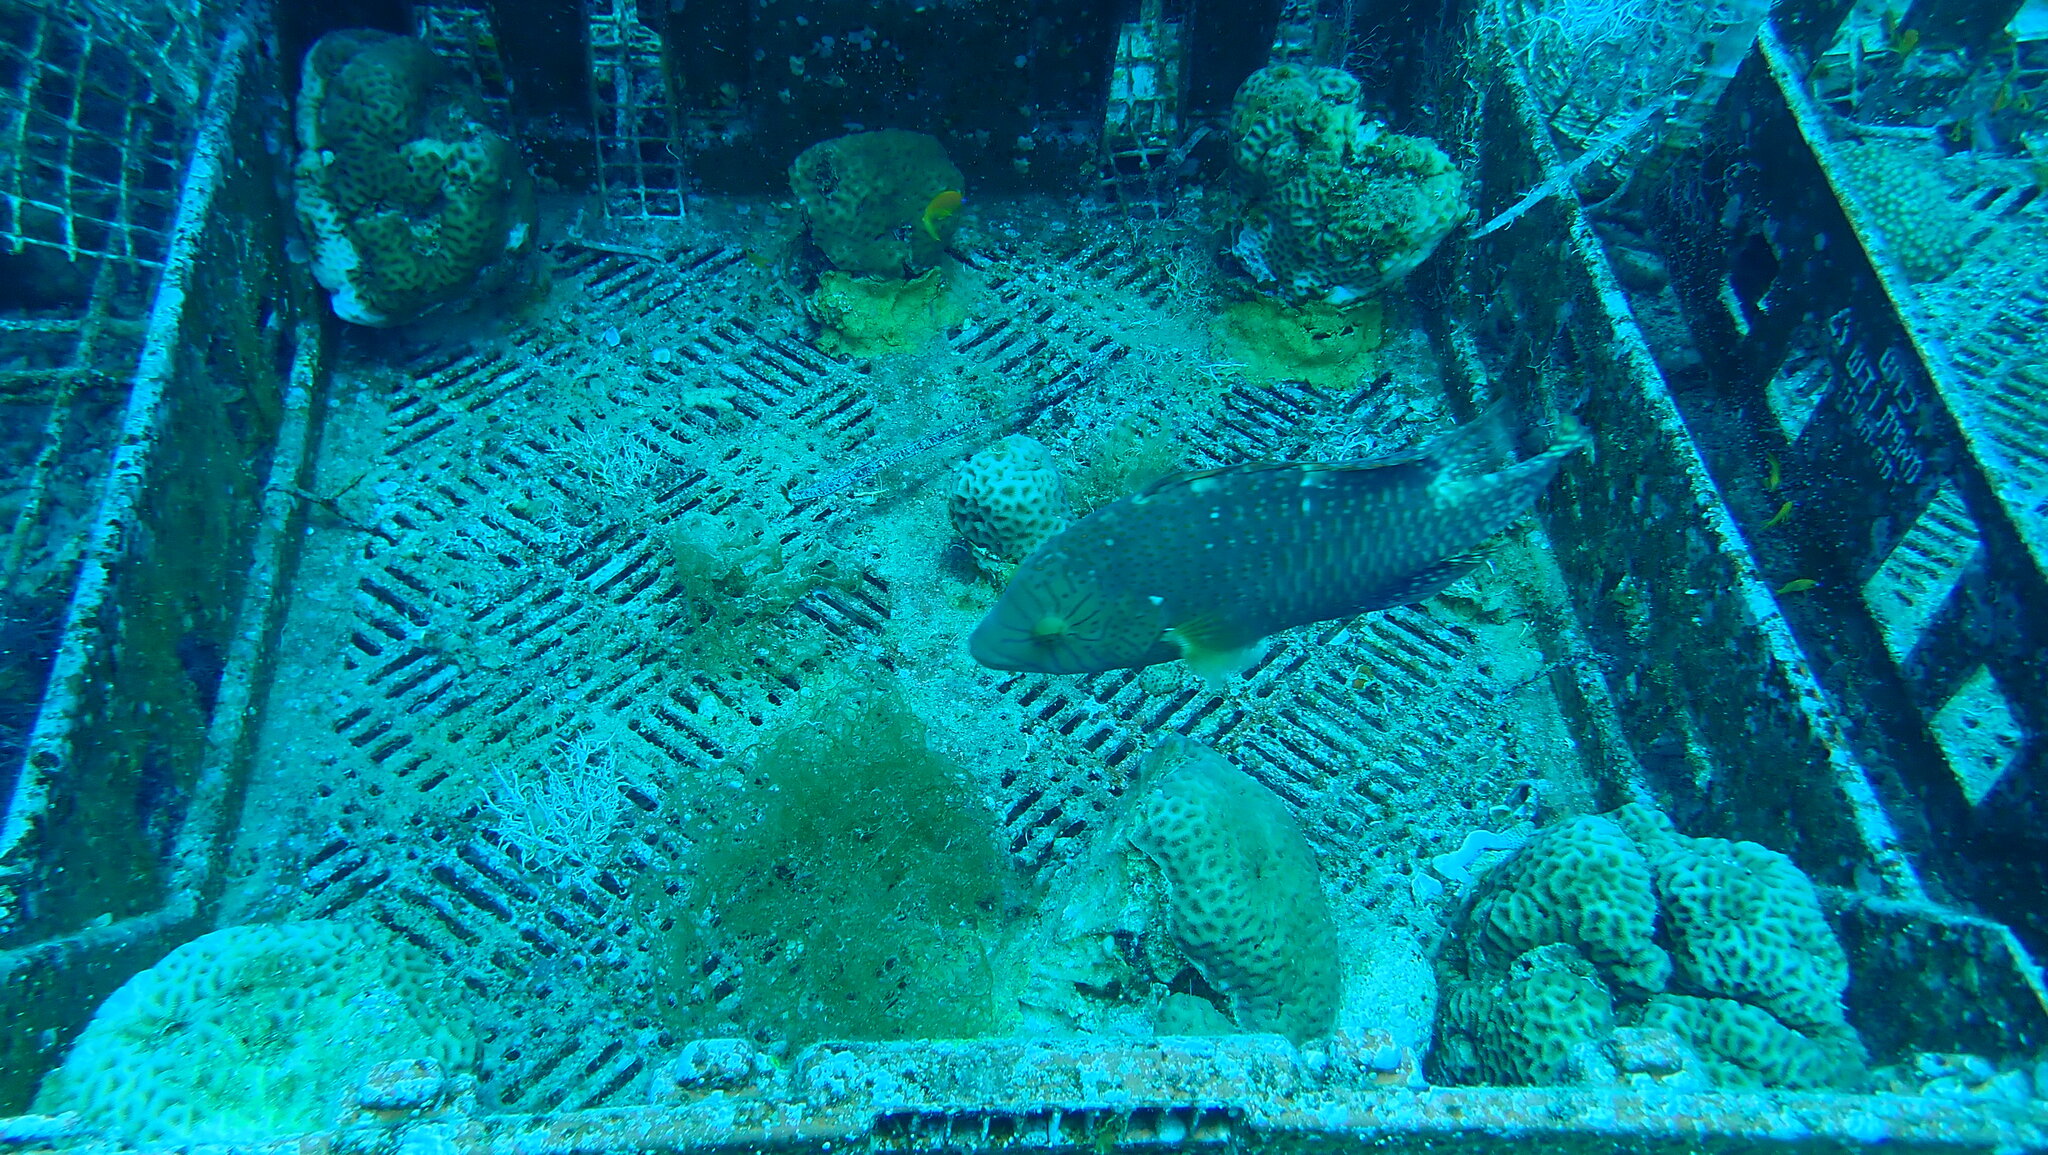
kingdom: Animalia
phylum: Chordata
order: Perciformes
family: Labridae
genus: Cheilinus
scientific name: Cheilinus abudjubbe
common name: Abudjubbe’s splendor wrasse
